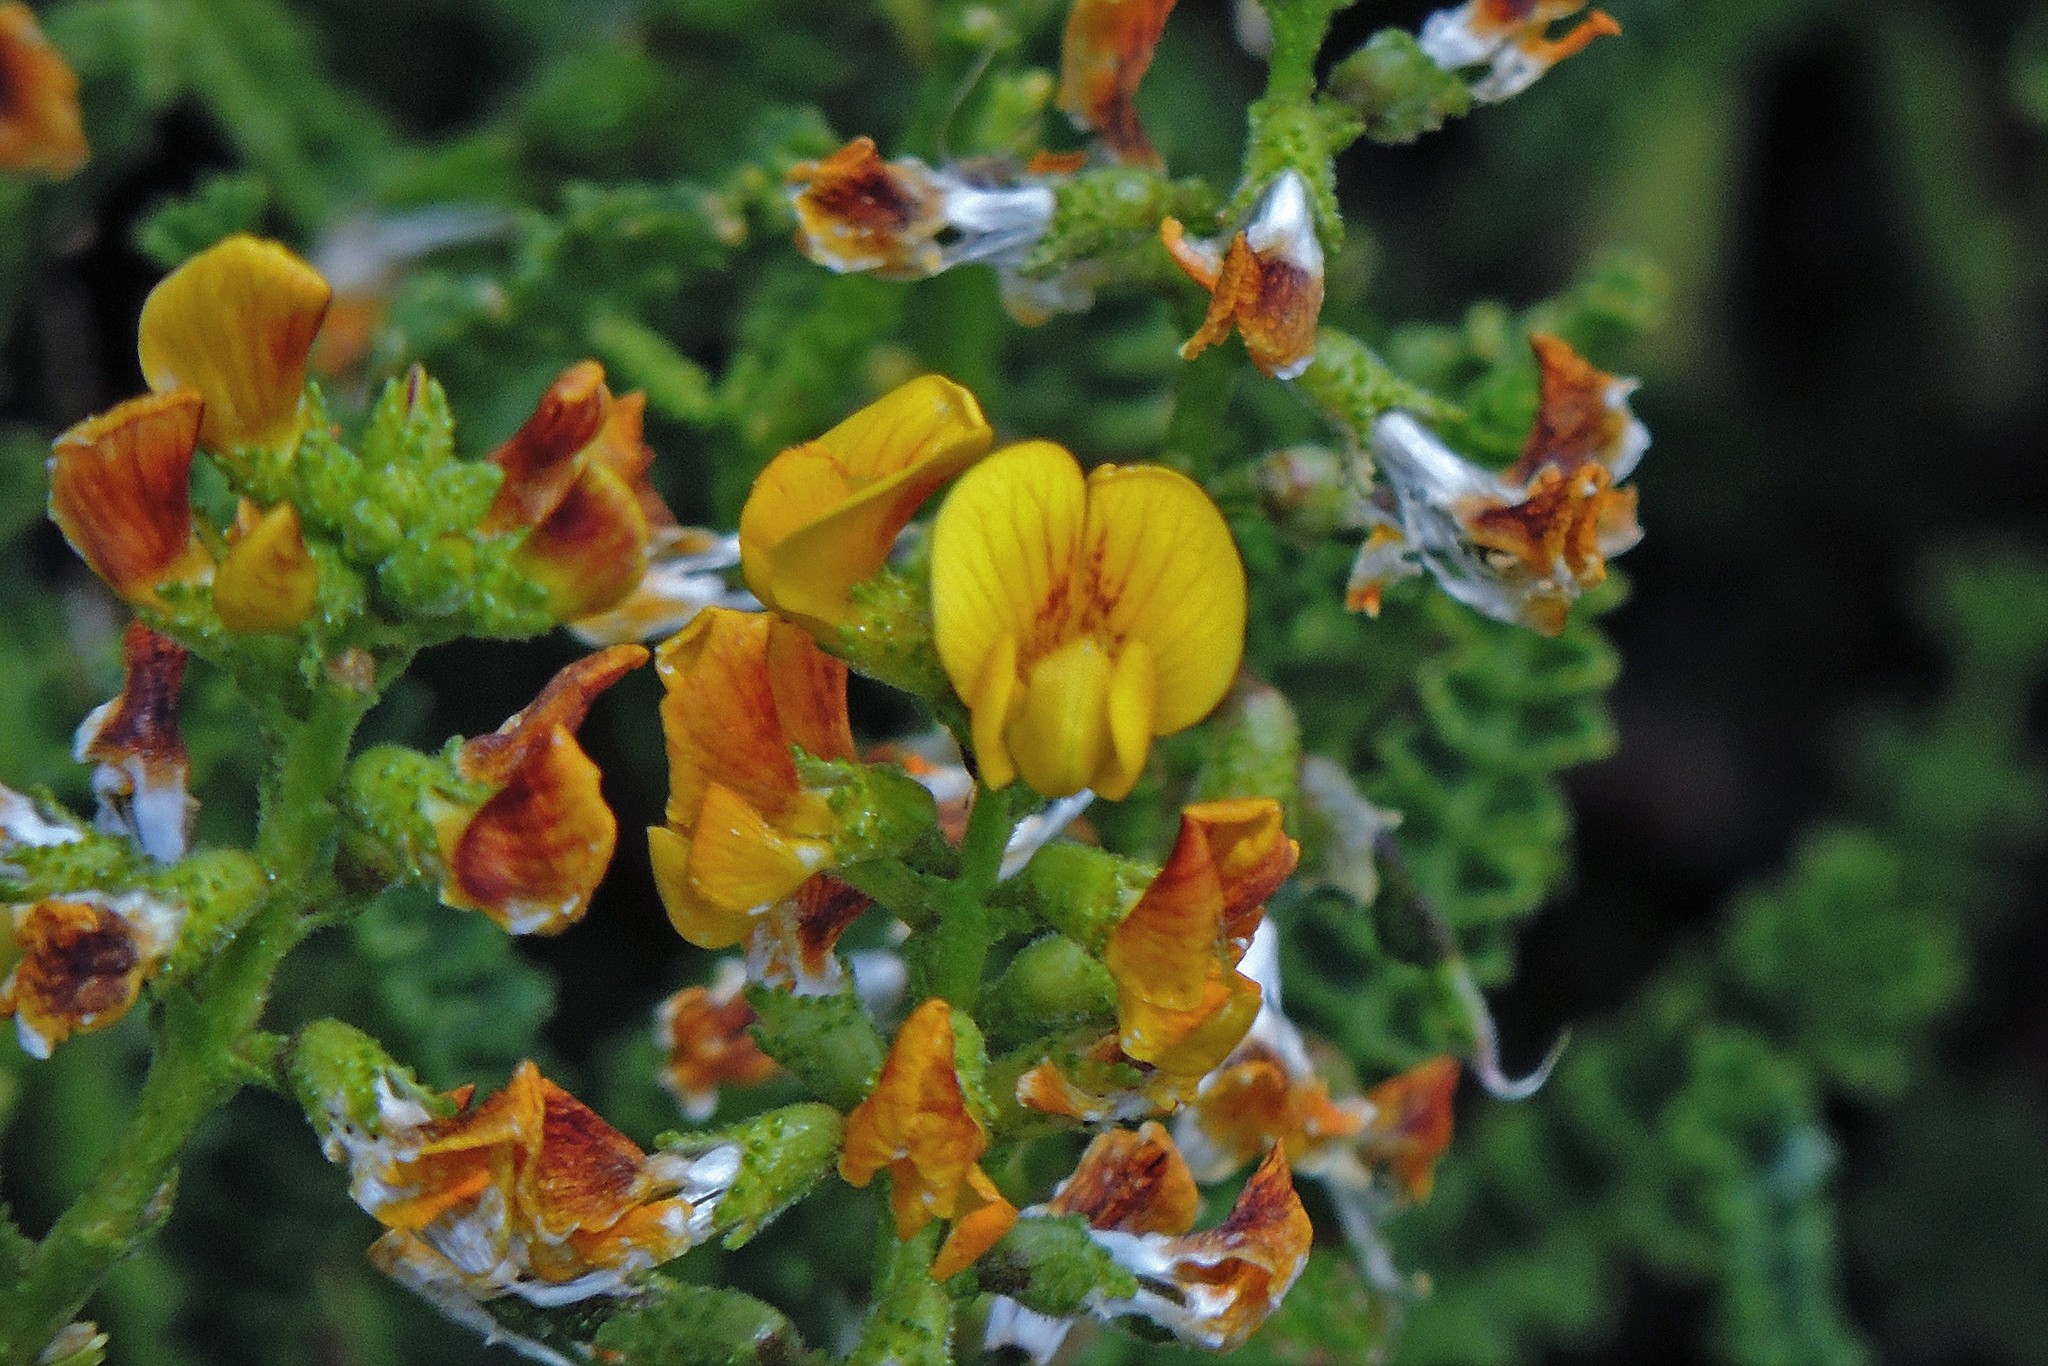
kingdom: Plantae
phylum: Tracheophyta
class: Magnoliopsida
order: Fabales
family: Fabaceae
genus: Adesmia
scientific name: Adesmia boronioides
